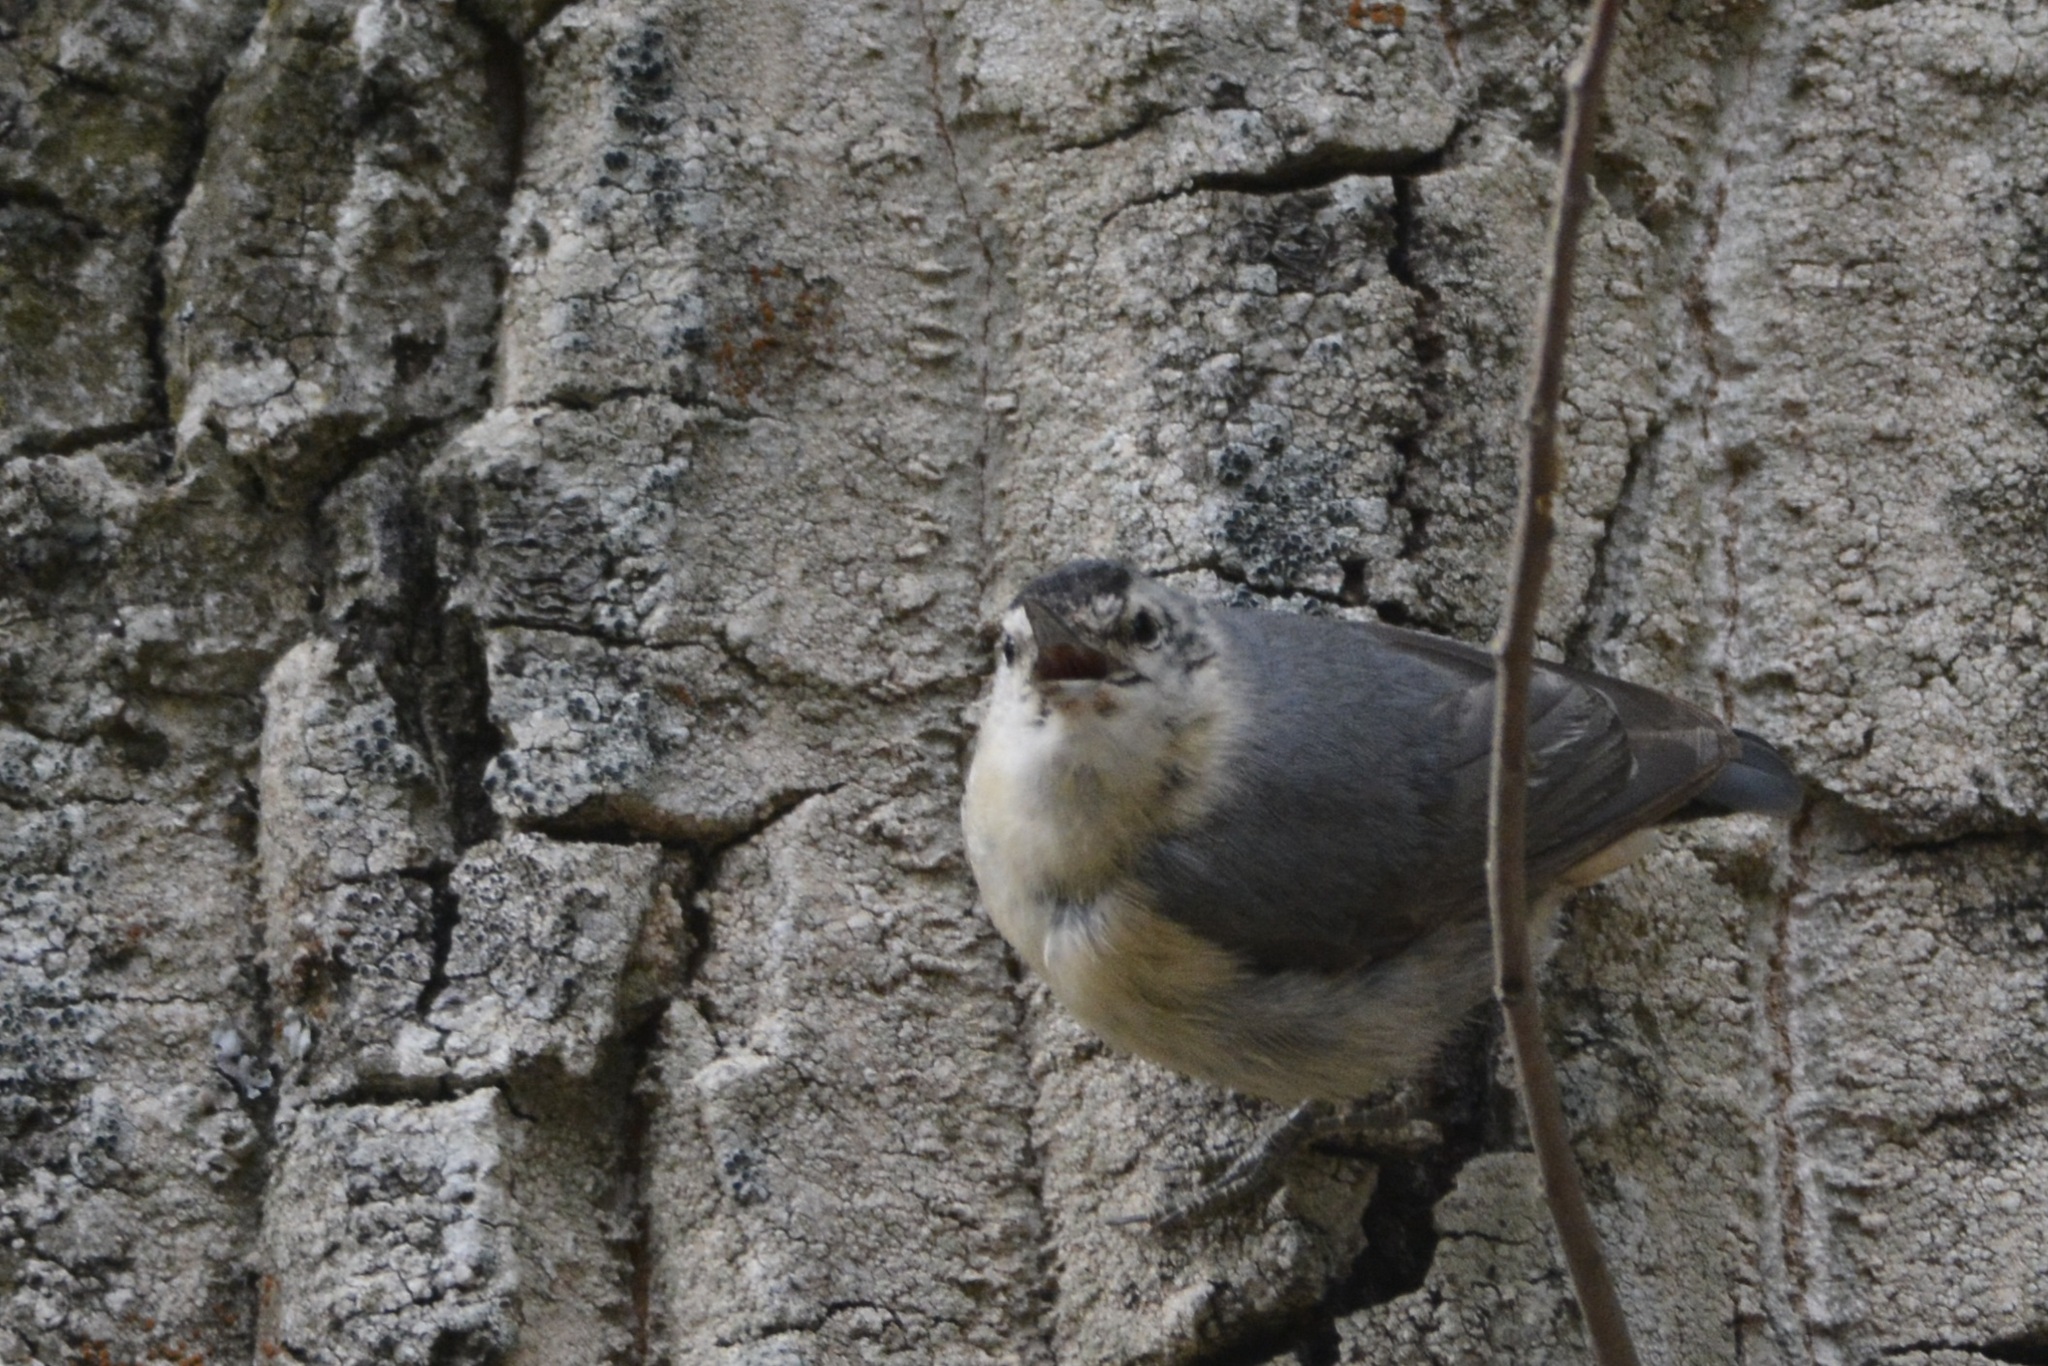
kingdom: Animalia
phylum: Chordata
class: Aves
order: Passeriformes
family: Sittidae
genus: Sitta
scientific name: Sitta ledanti
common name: Algerian nuthatch
